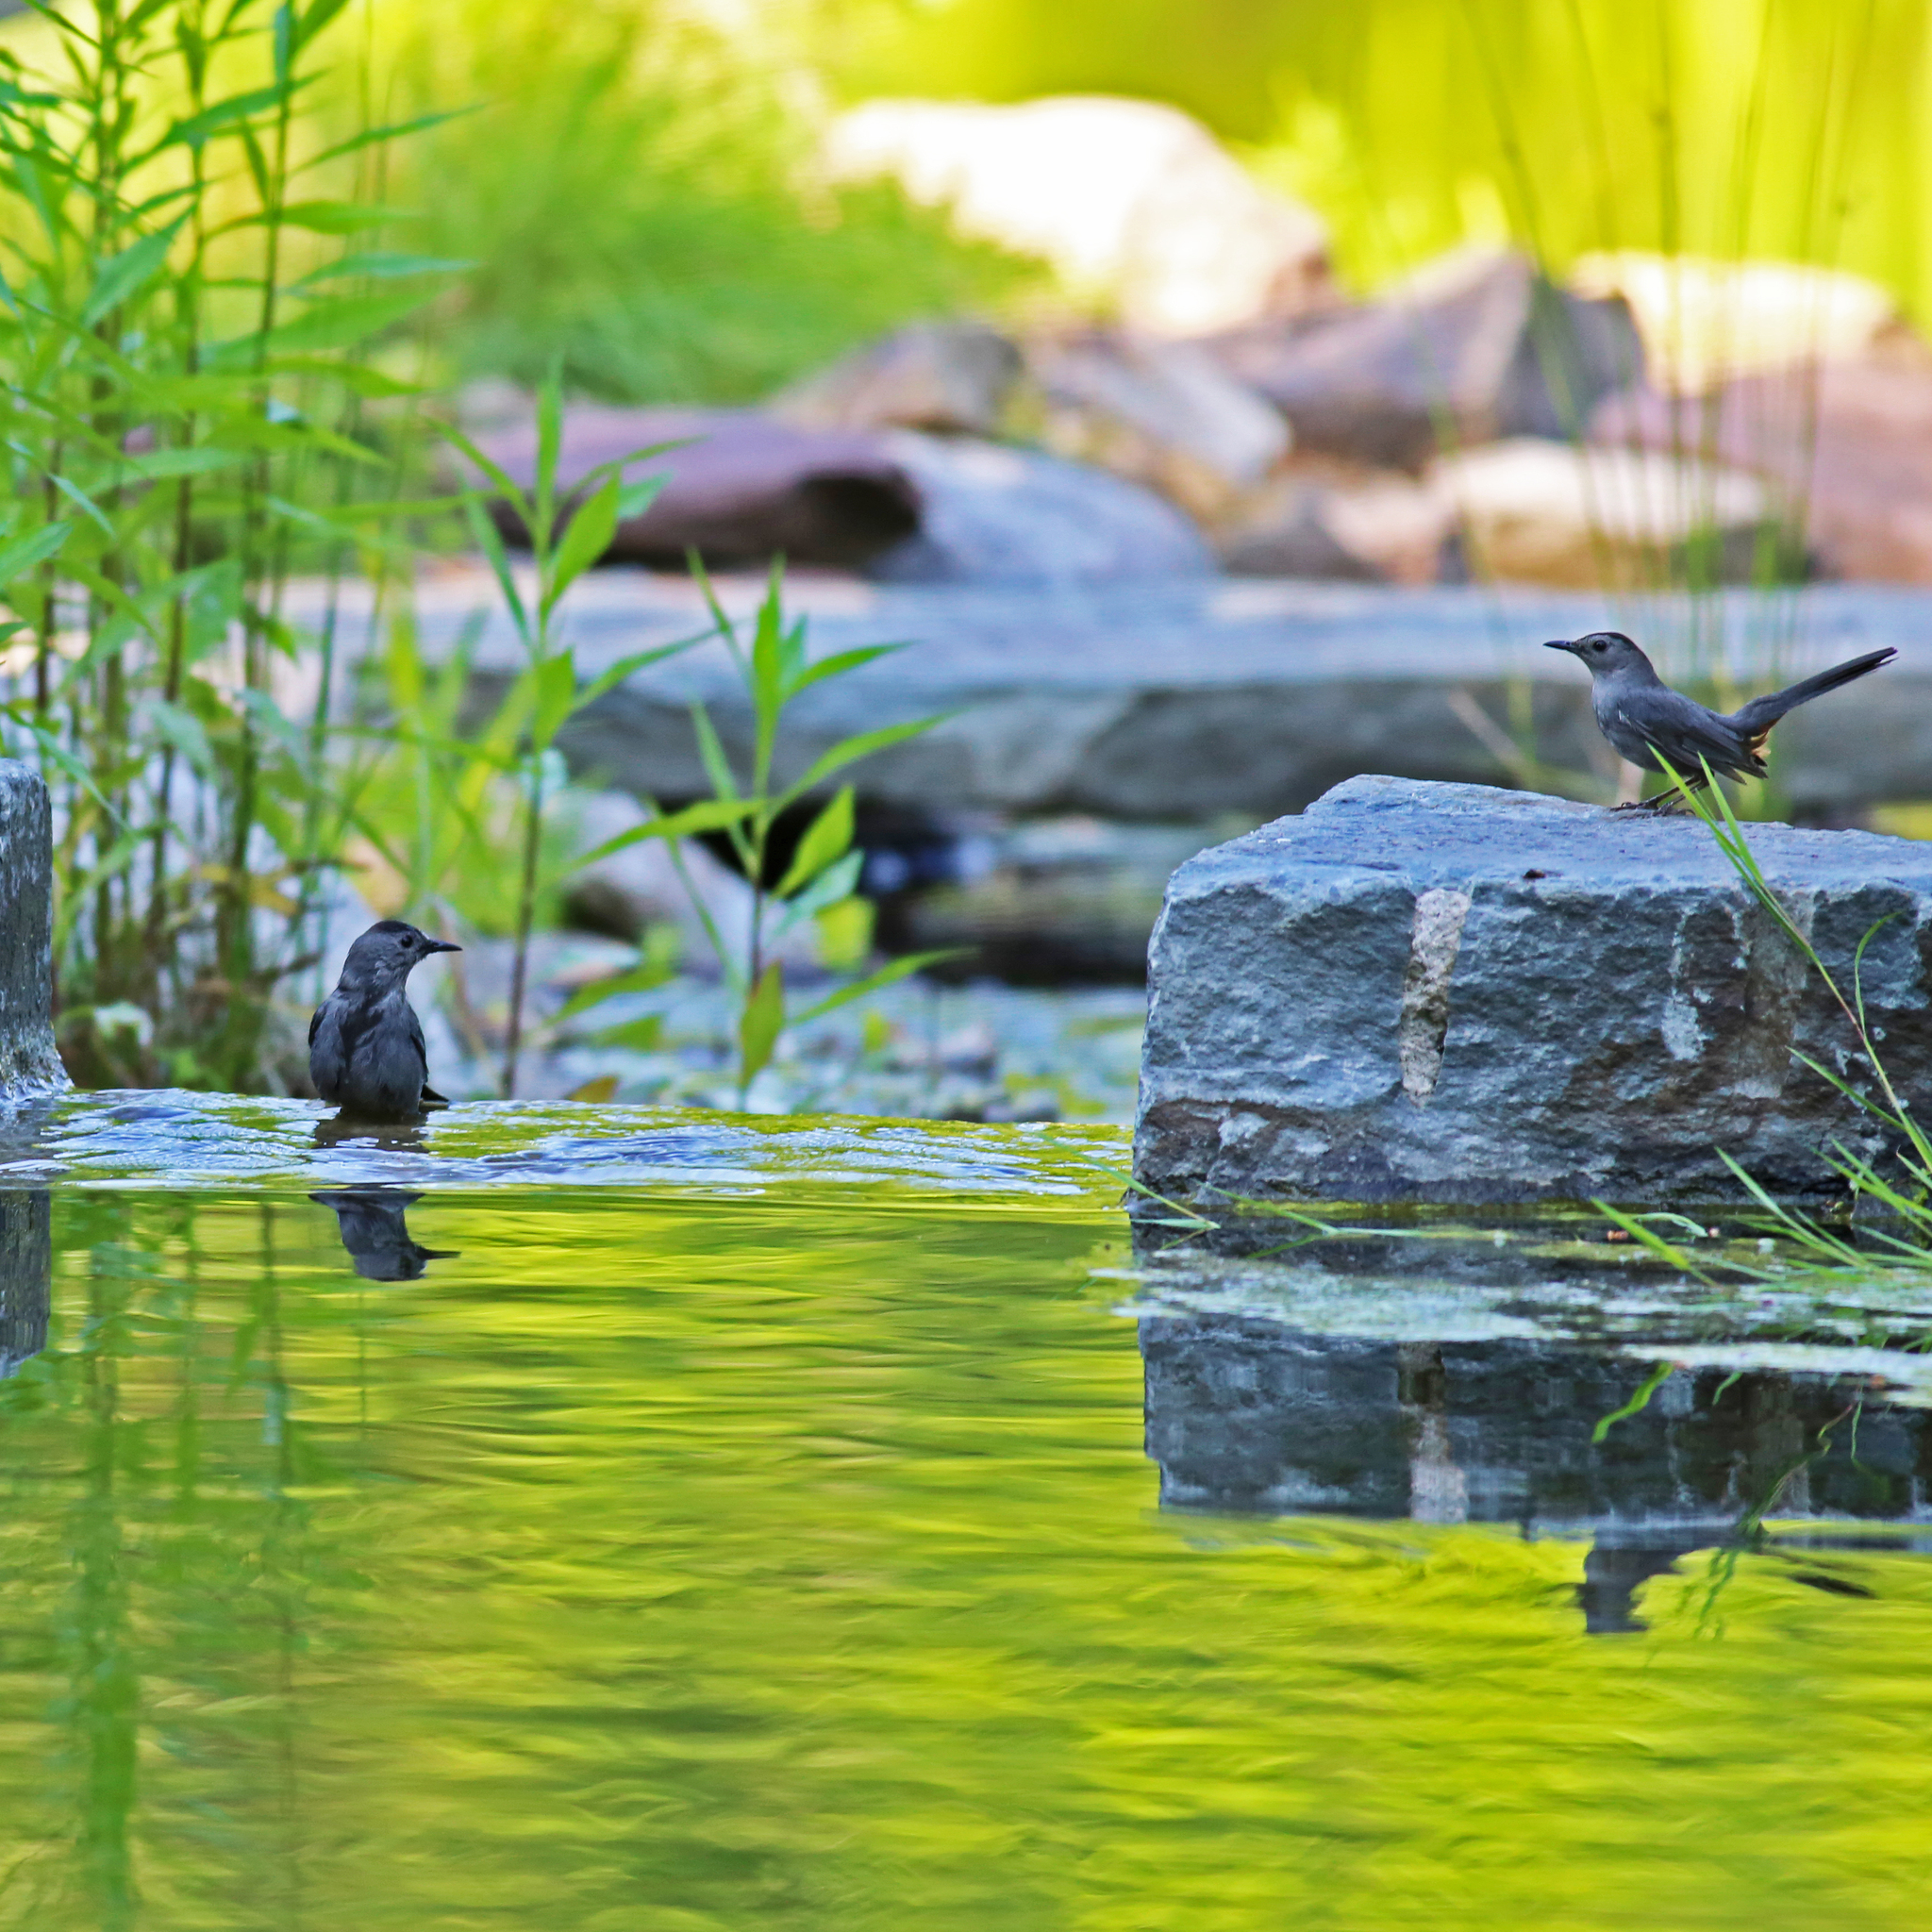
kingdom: Animalia
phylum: Chordata
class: Aves
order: Passeriformes
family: Mimidae
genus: Dumetella
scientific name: Dumetella carolinensis
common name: Gray catbird
